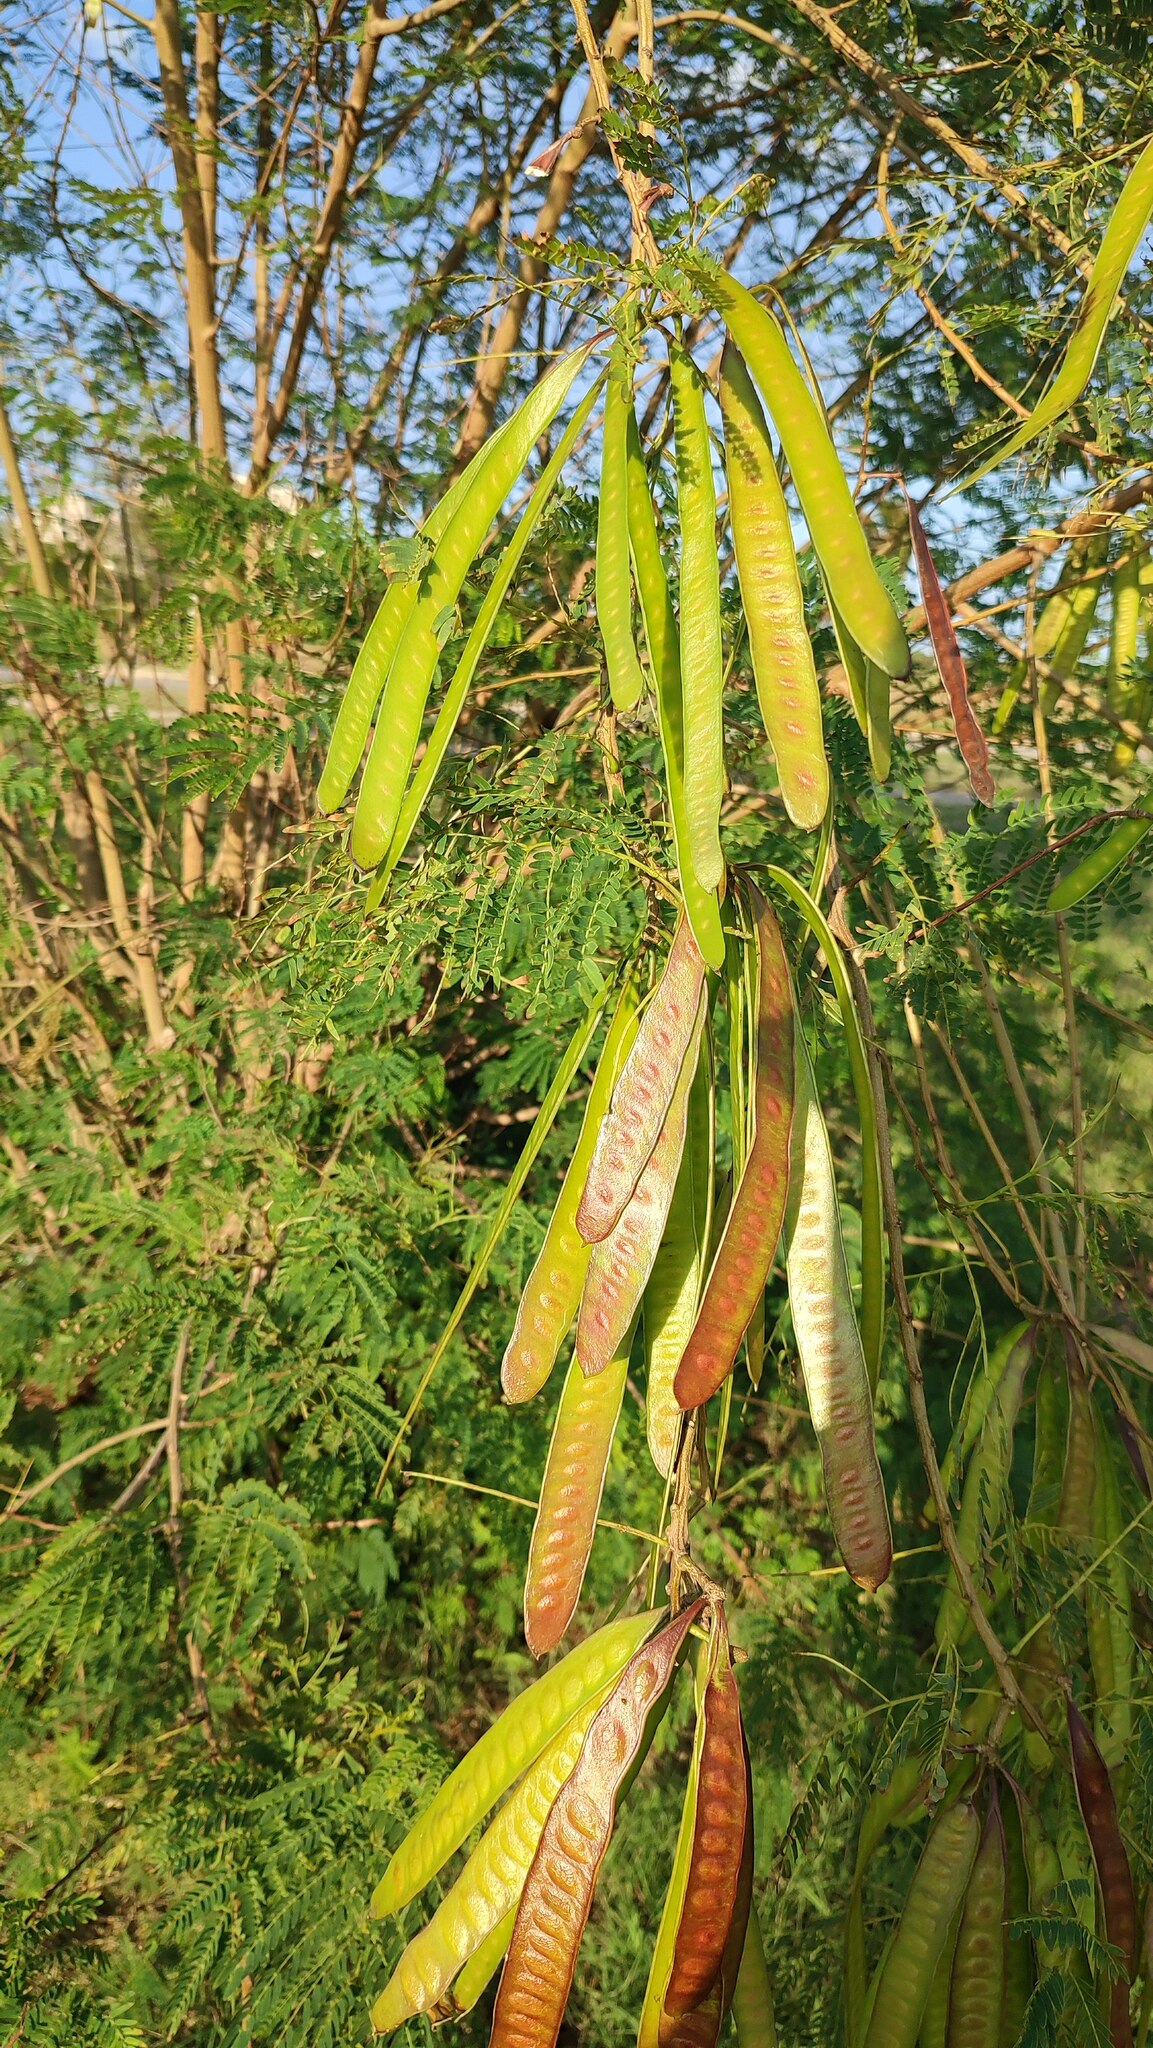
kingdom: Plantae
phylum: Tracheophyta
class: Magnoliopsida
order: Fabales
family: Fabaceae
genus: Leucaena
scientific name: Leucaena leucocephala
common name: White leadtree
